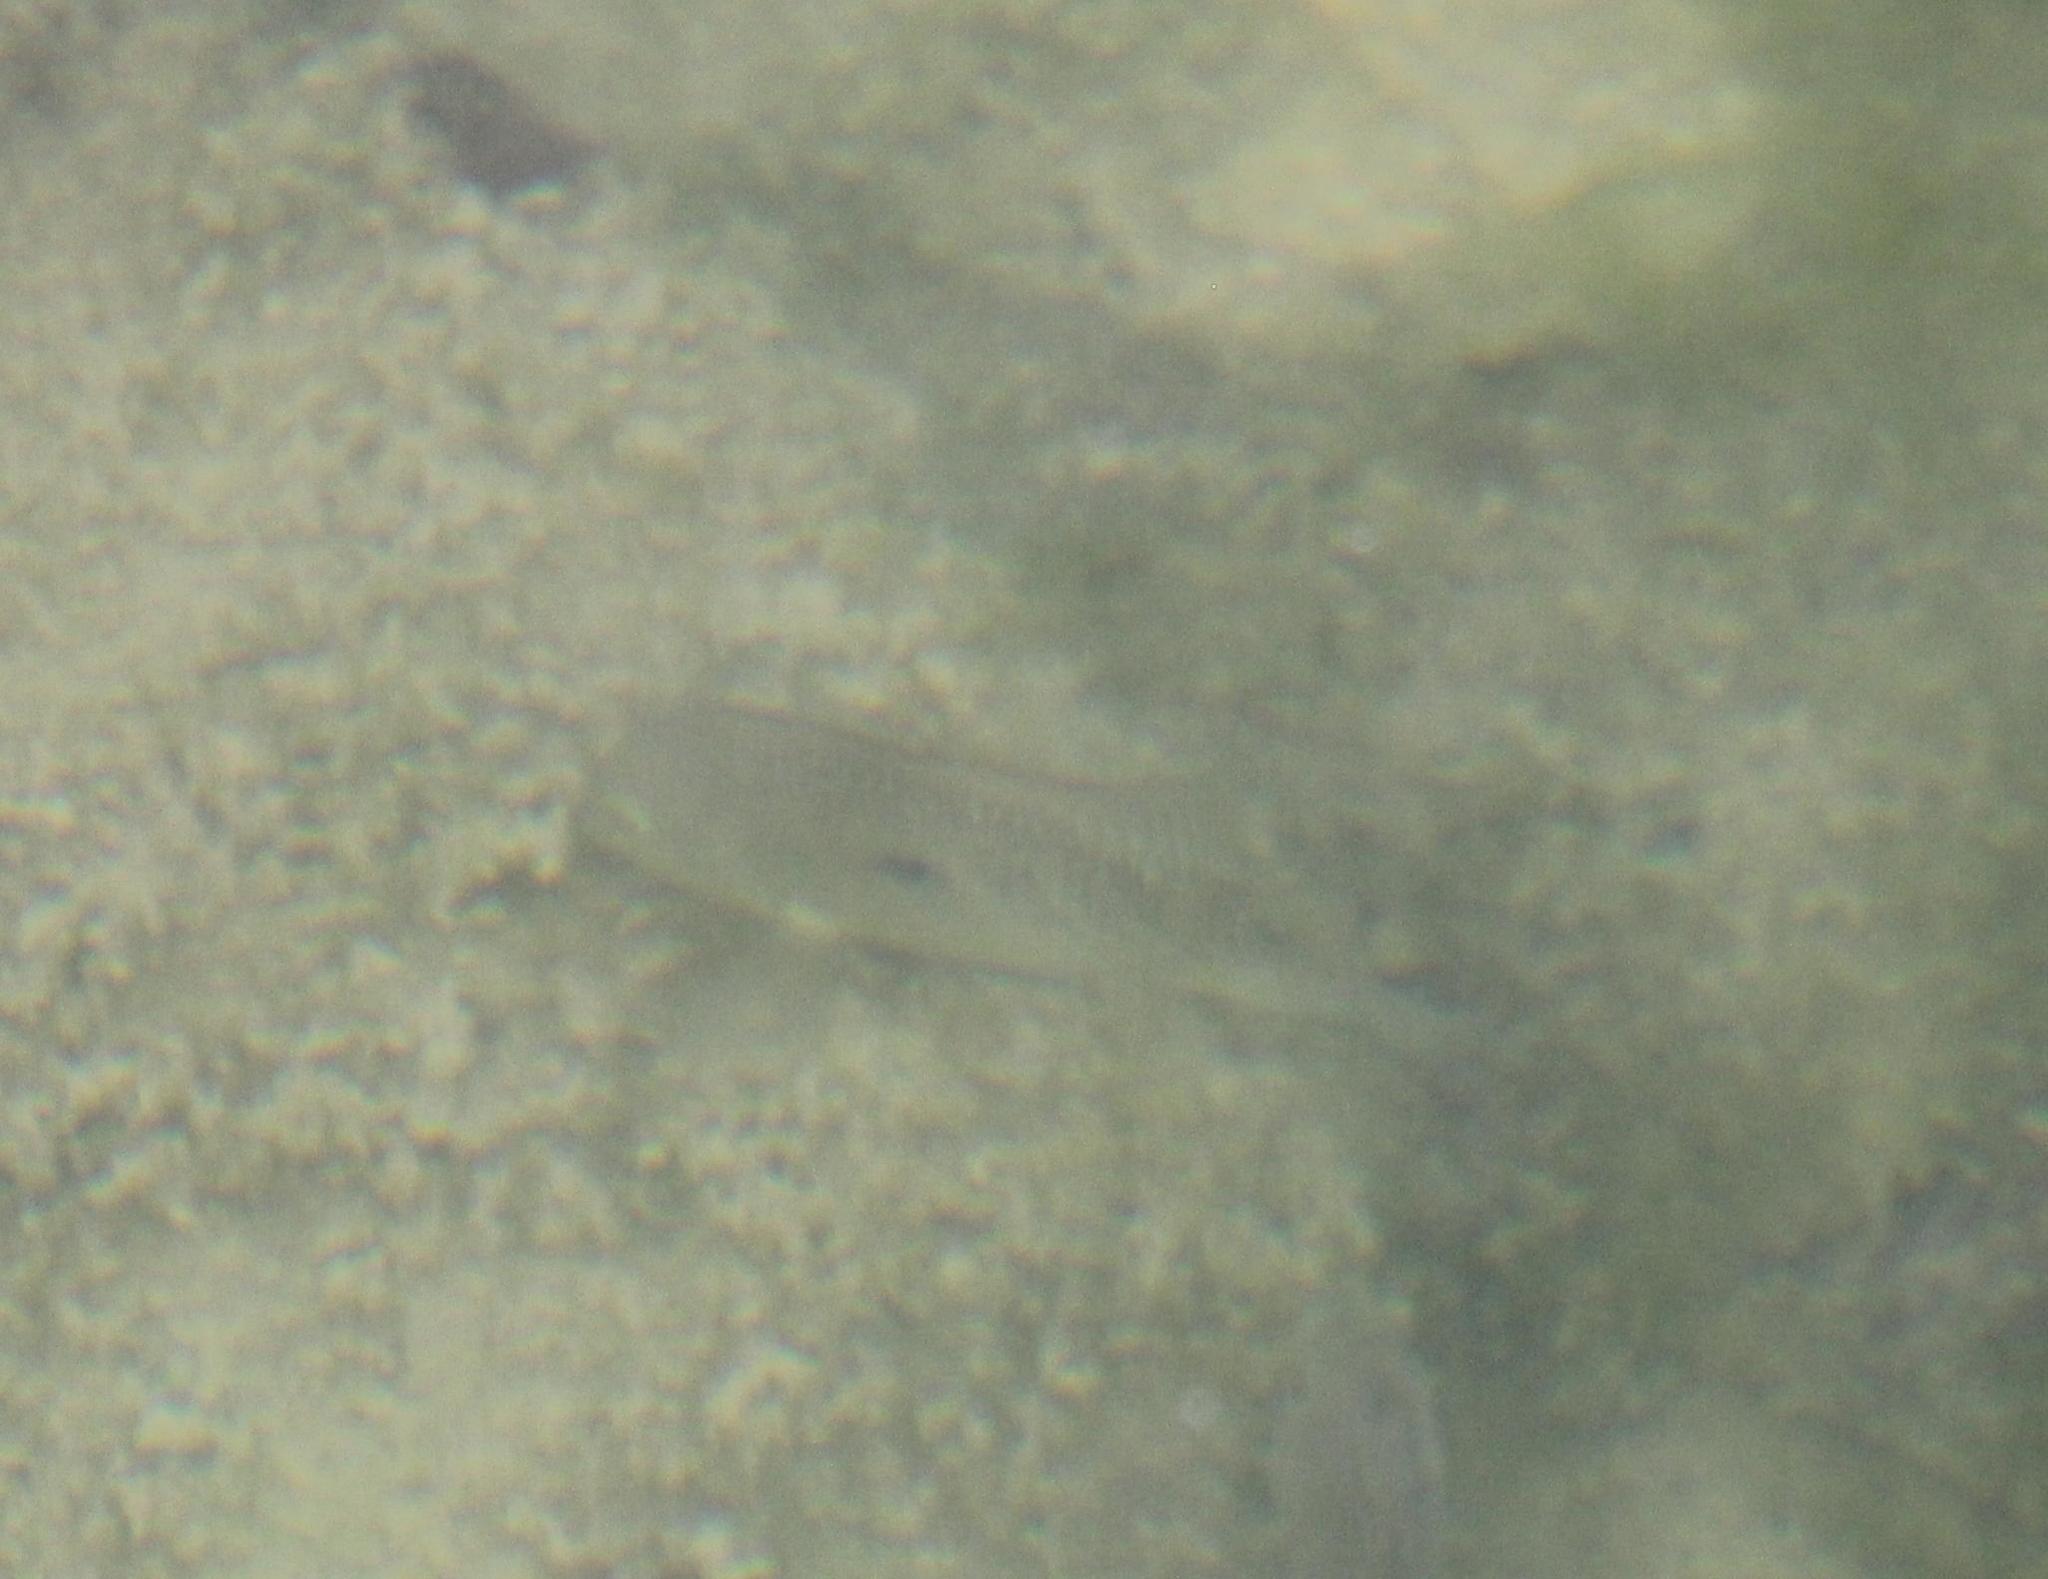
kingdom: Animalia
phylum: Chordata
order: Perciformes
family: Cichlidae
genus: Herichthys
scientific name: Herichthys cyanoguttatus
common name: Rio grande cichlid
